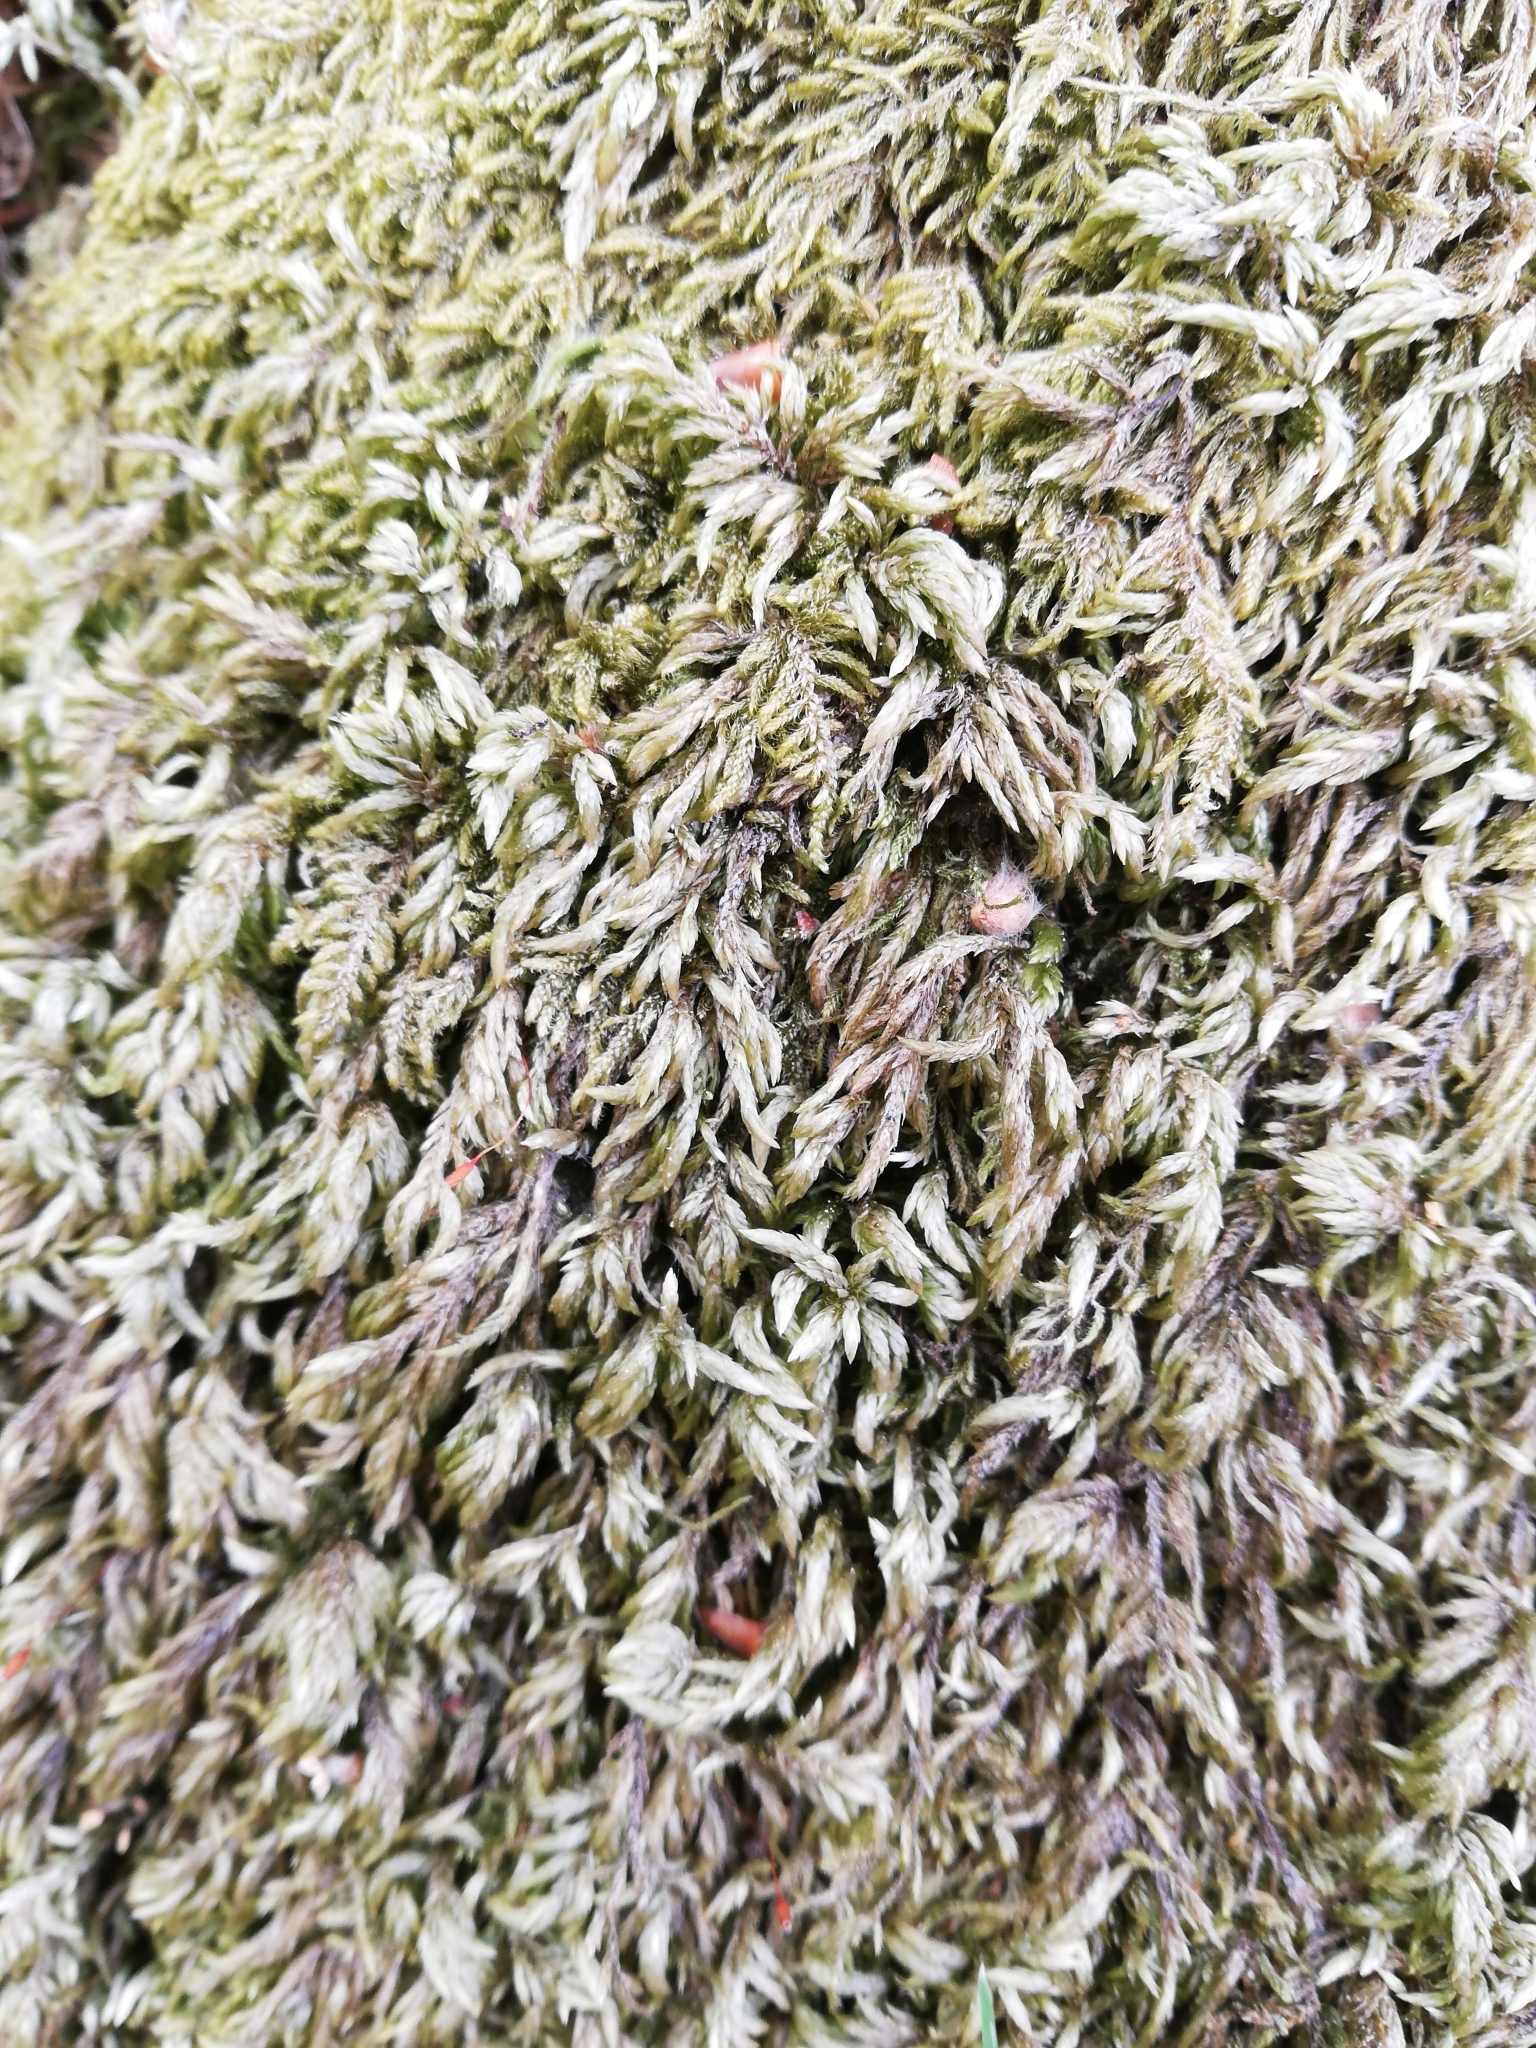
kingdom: Plantae
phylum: Bryophyta
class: Bryopsida
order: Hypnales
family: Lembophyllaceae
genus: Isothecium
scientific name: Isothecium alopecuroides
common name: Larger mouse-tail moss
